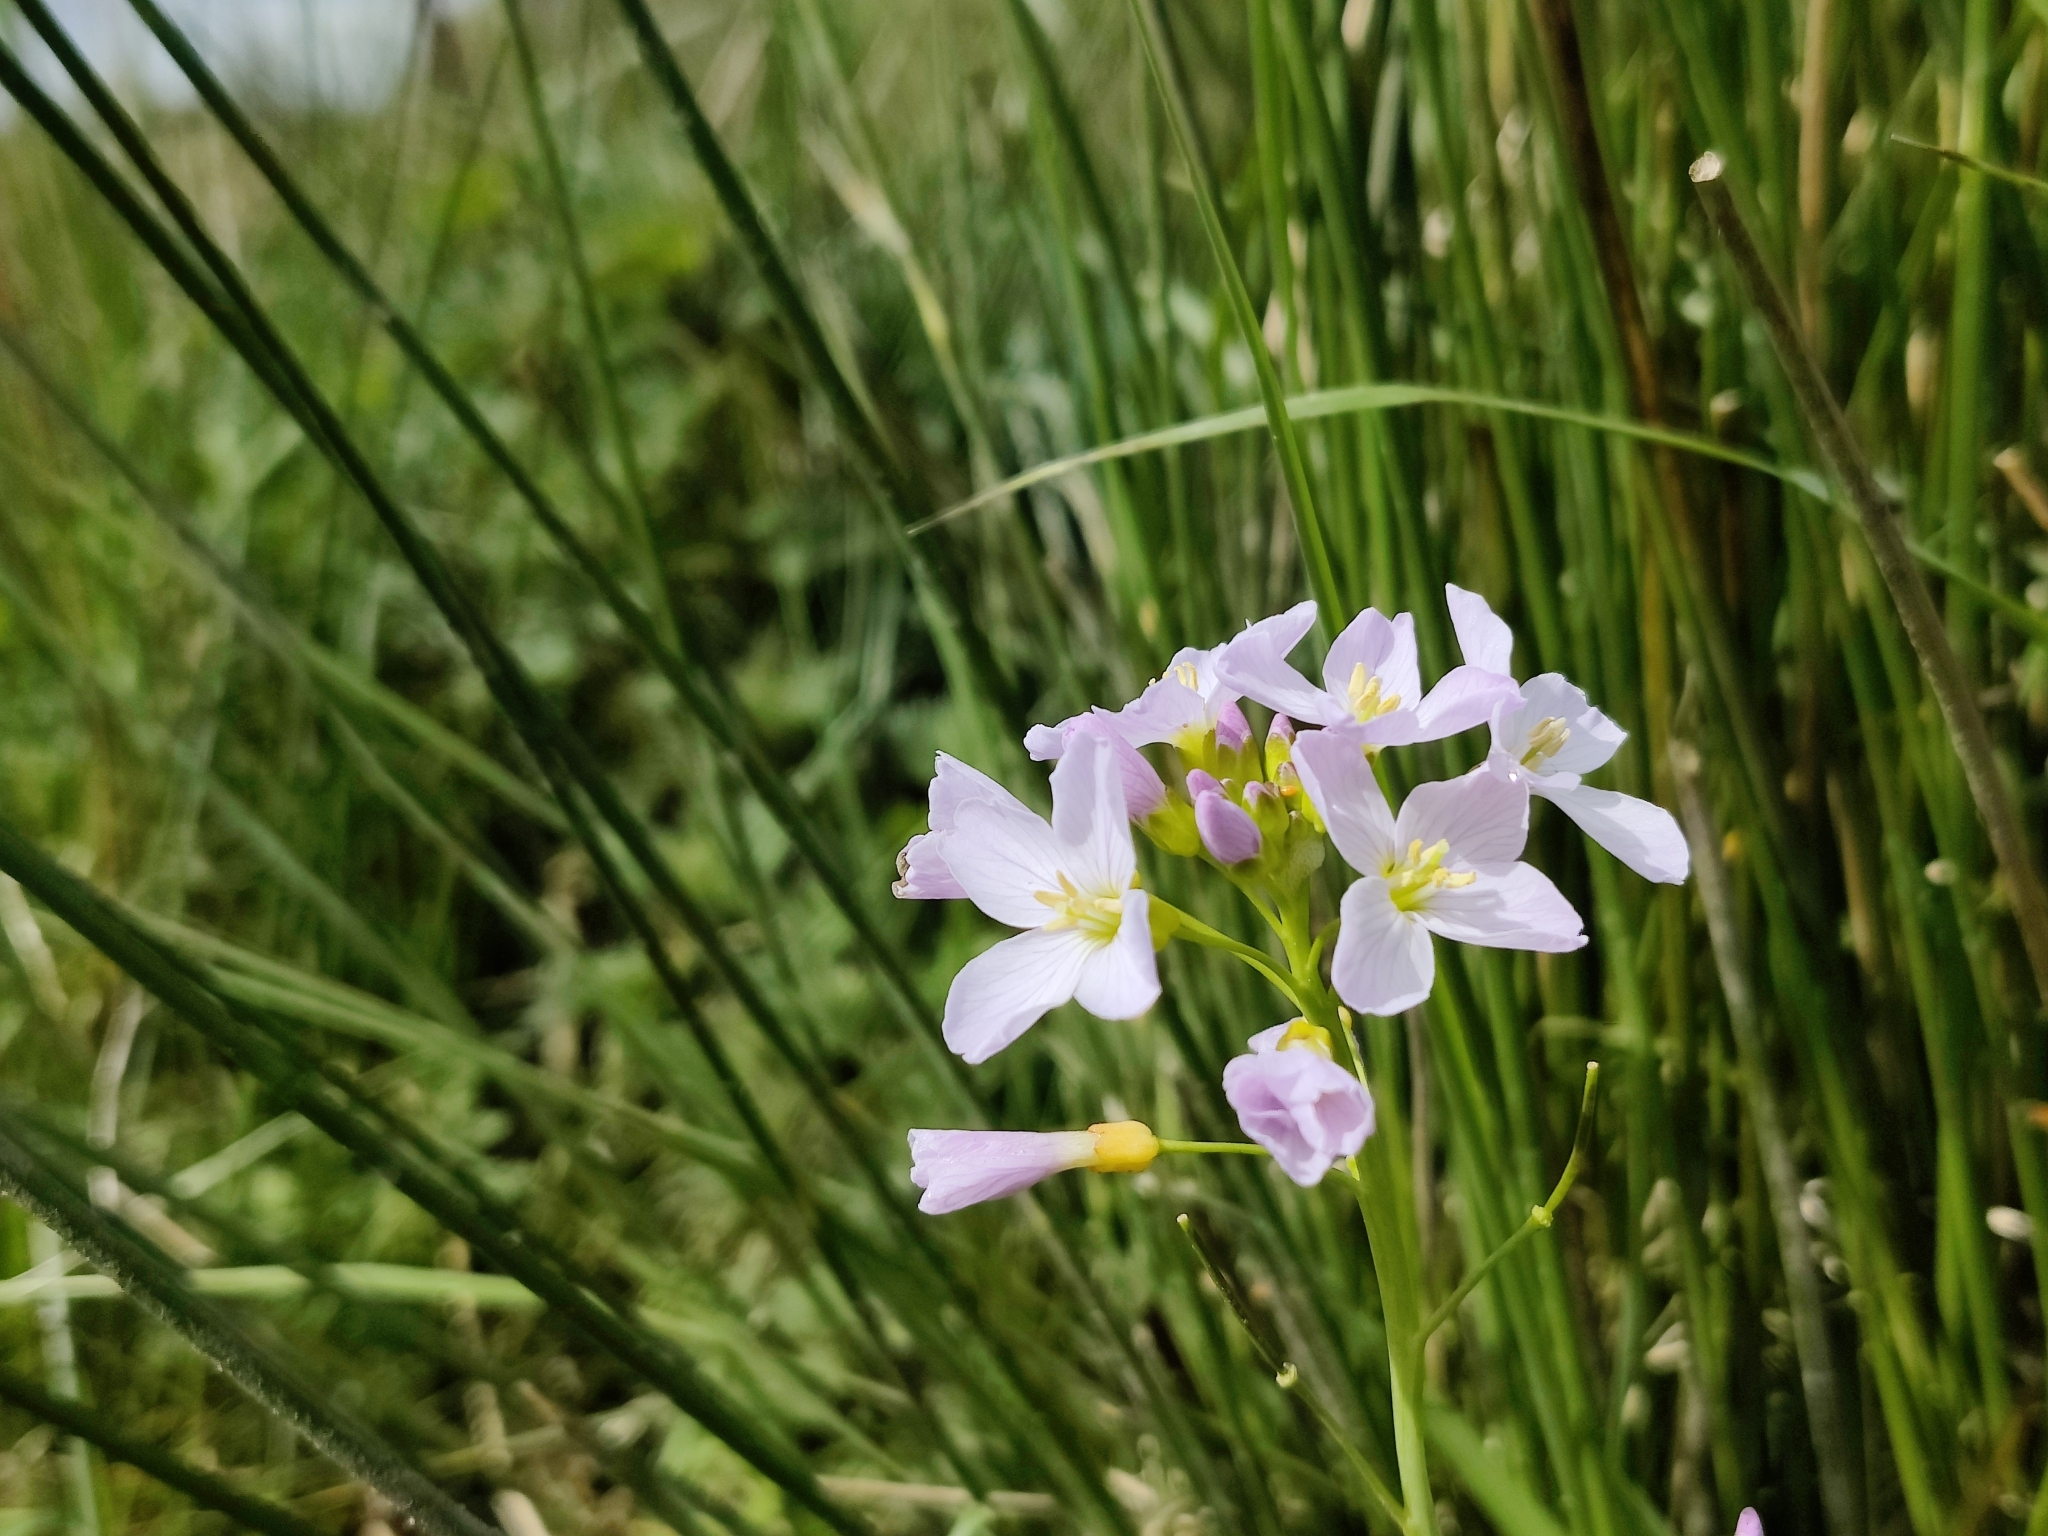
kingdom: Plantae
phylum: Tracheophyta
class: Magnoliopsida
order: Brassicales
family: Brassicaceae
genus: Cardamine
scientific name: Cardamine pratensis
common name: Cuckoo flower
